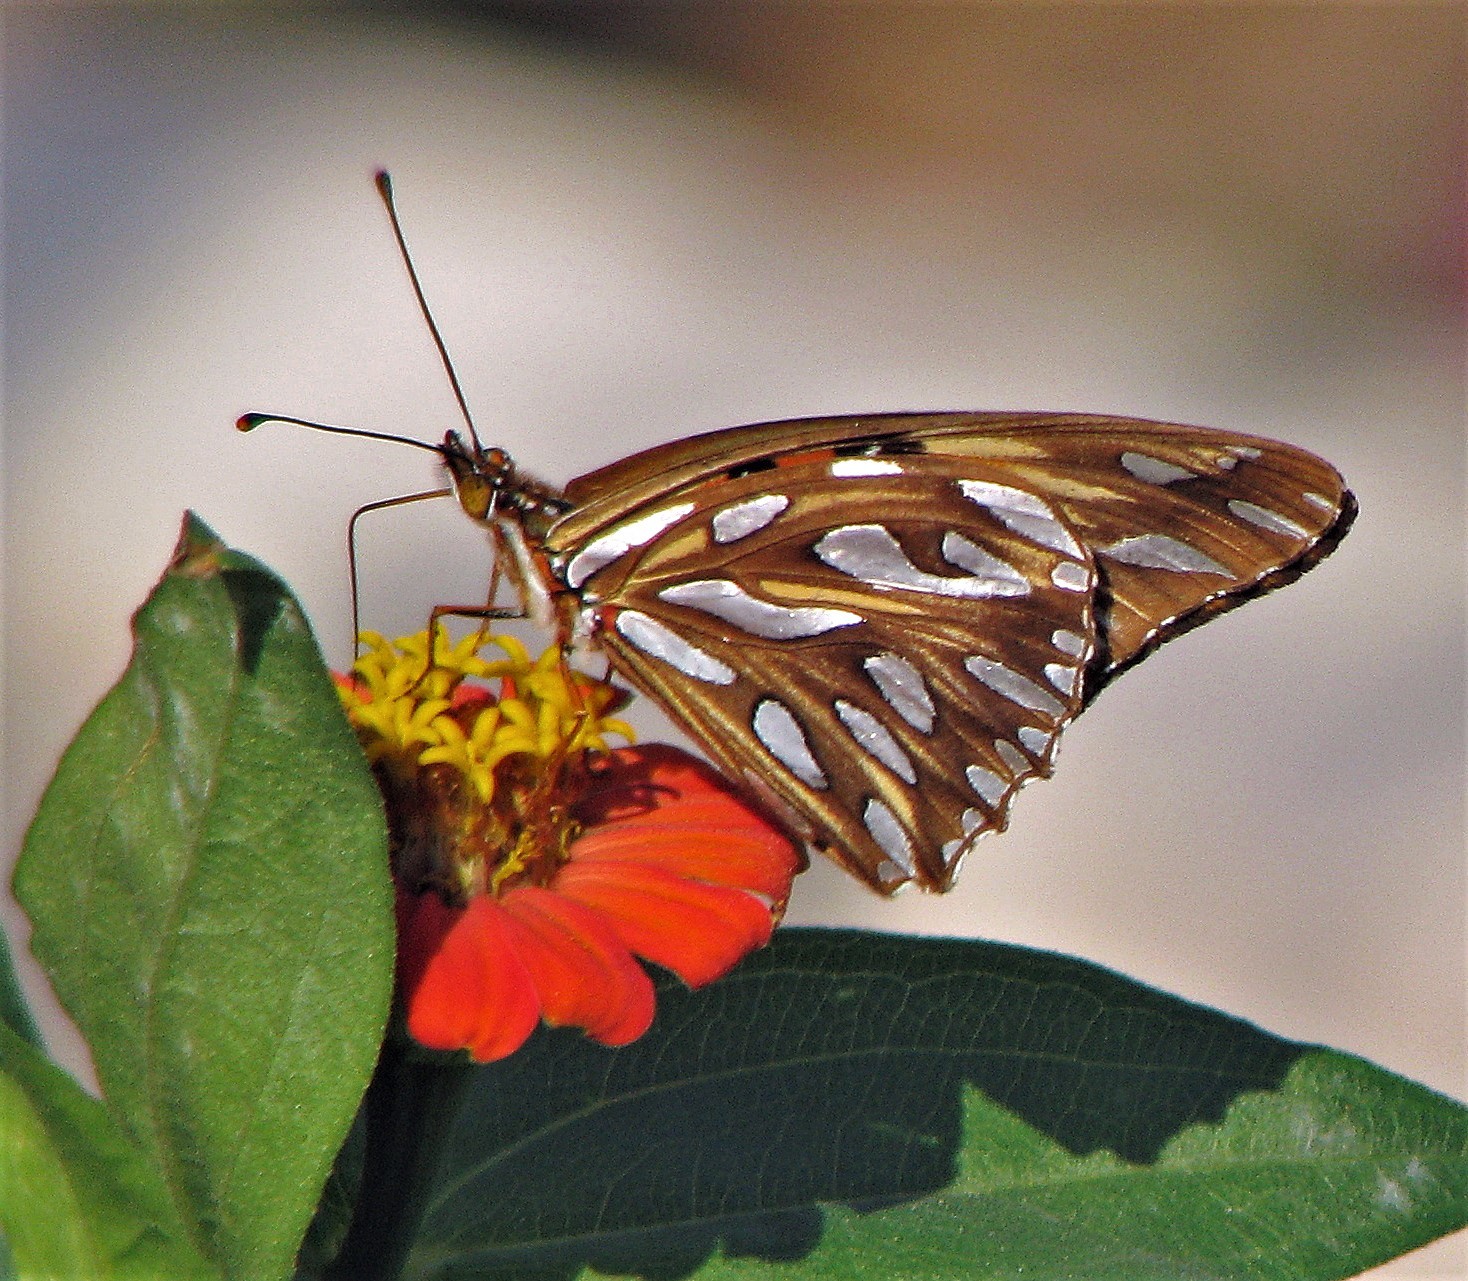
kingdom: Animalia
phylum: Arthropoda
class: Insecta
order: Lepidoptera
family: Nymphalidae
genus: Dione
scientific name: Dione vanillae
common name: Gulf fritillary
